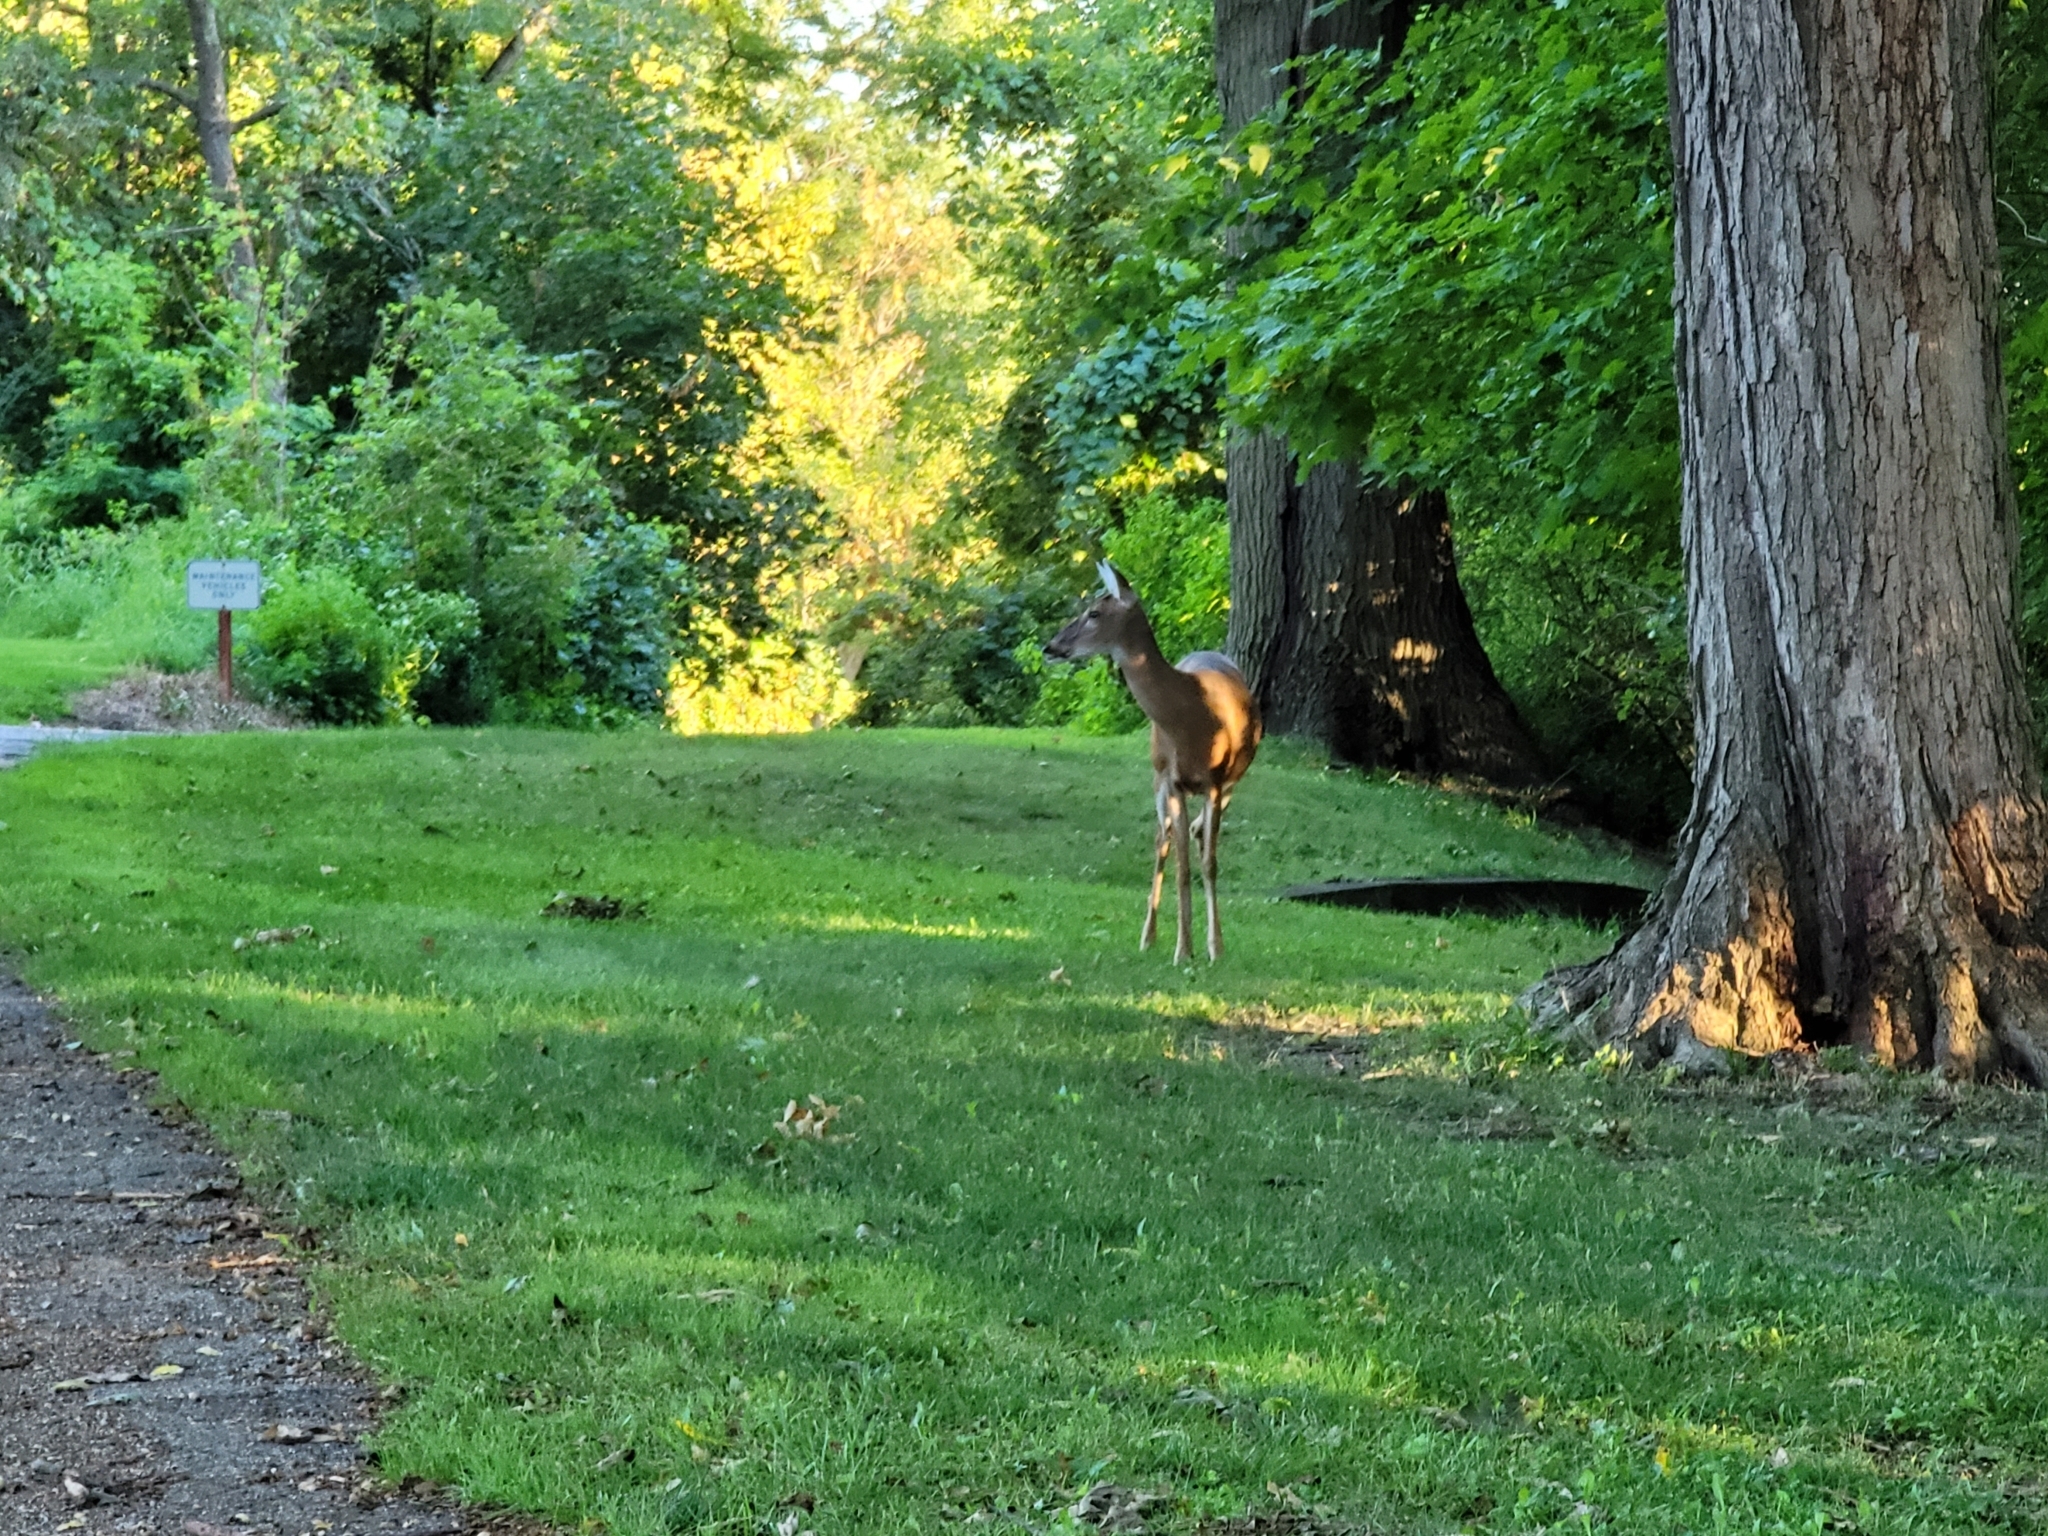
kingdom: Animalia
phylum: Chordata
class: Mammalia
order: Artiodactyla
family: Cervidae
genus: Odocoileus
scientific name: Odocoileus virginianus
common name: White-tailed deer
